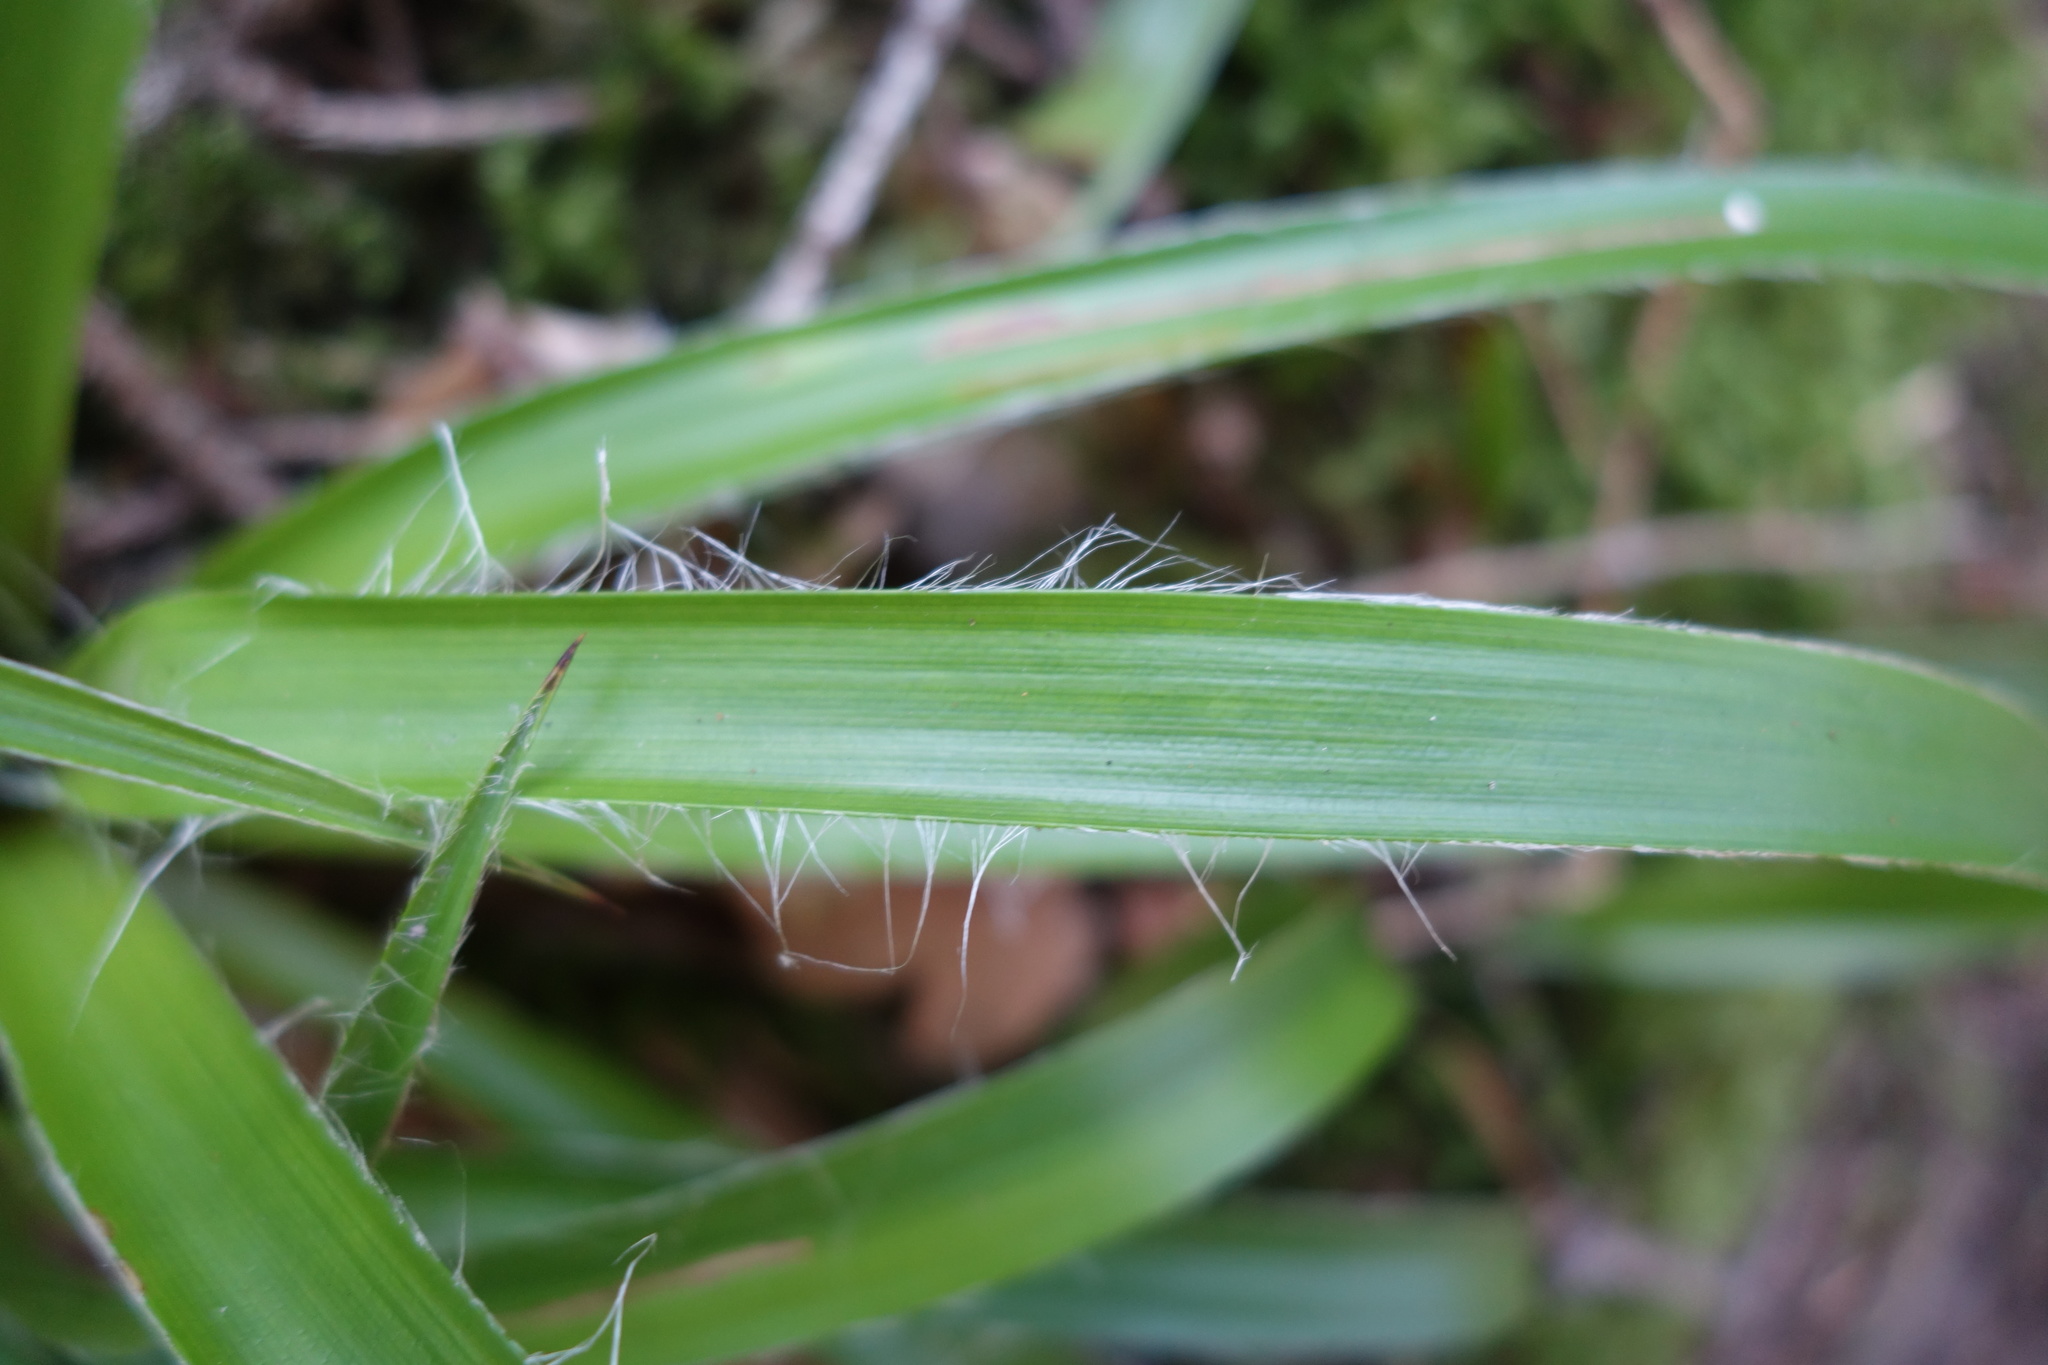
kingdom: Plantae
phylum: Tracheophyta
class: Liliopsida
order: Poales
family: Juncaceae
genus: Luzula
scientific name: Luzula sylvatica
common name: Great wood-rush
